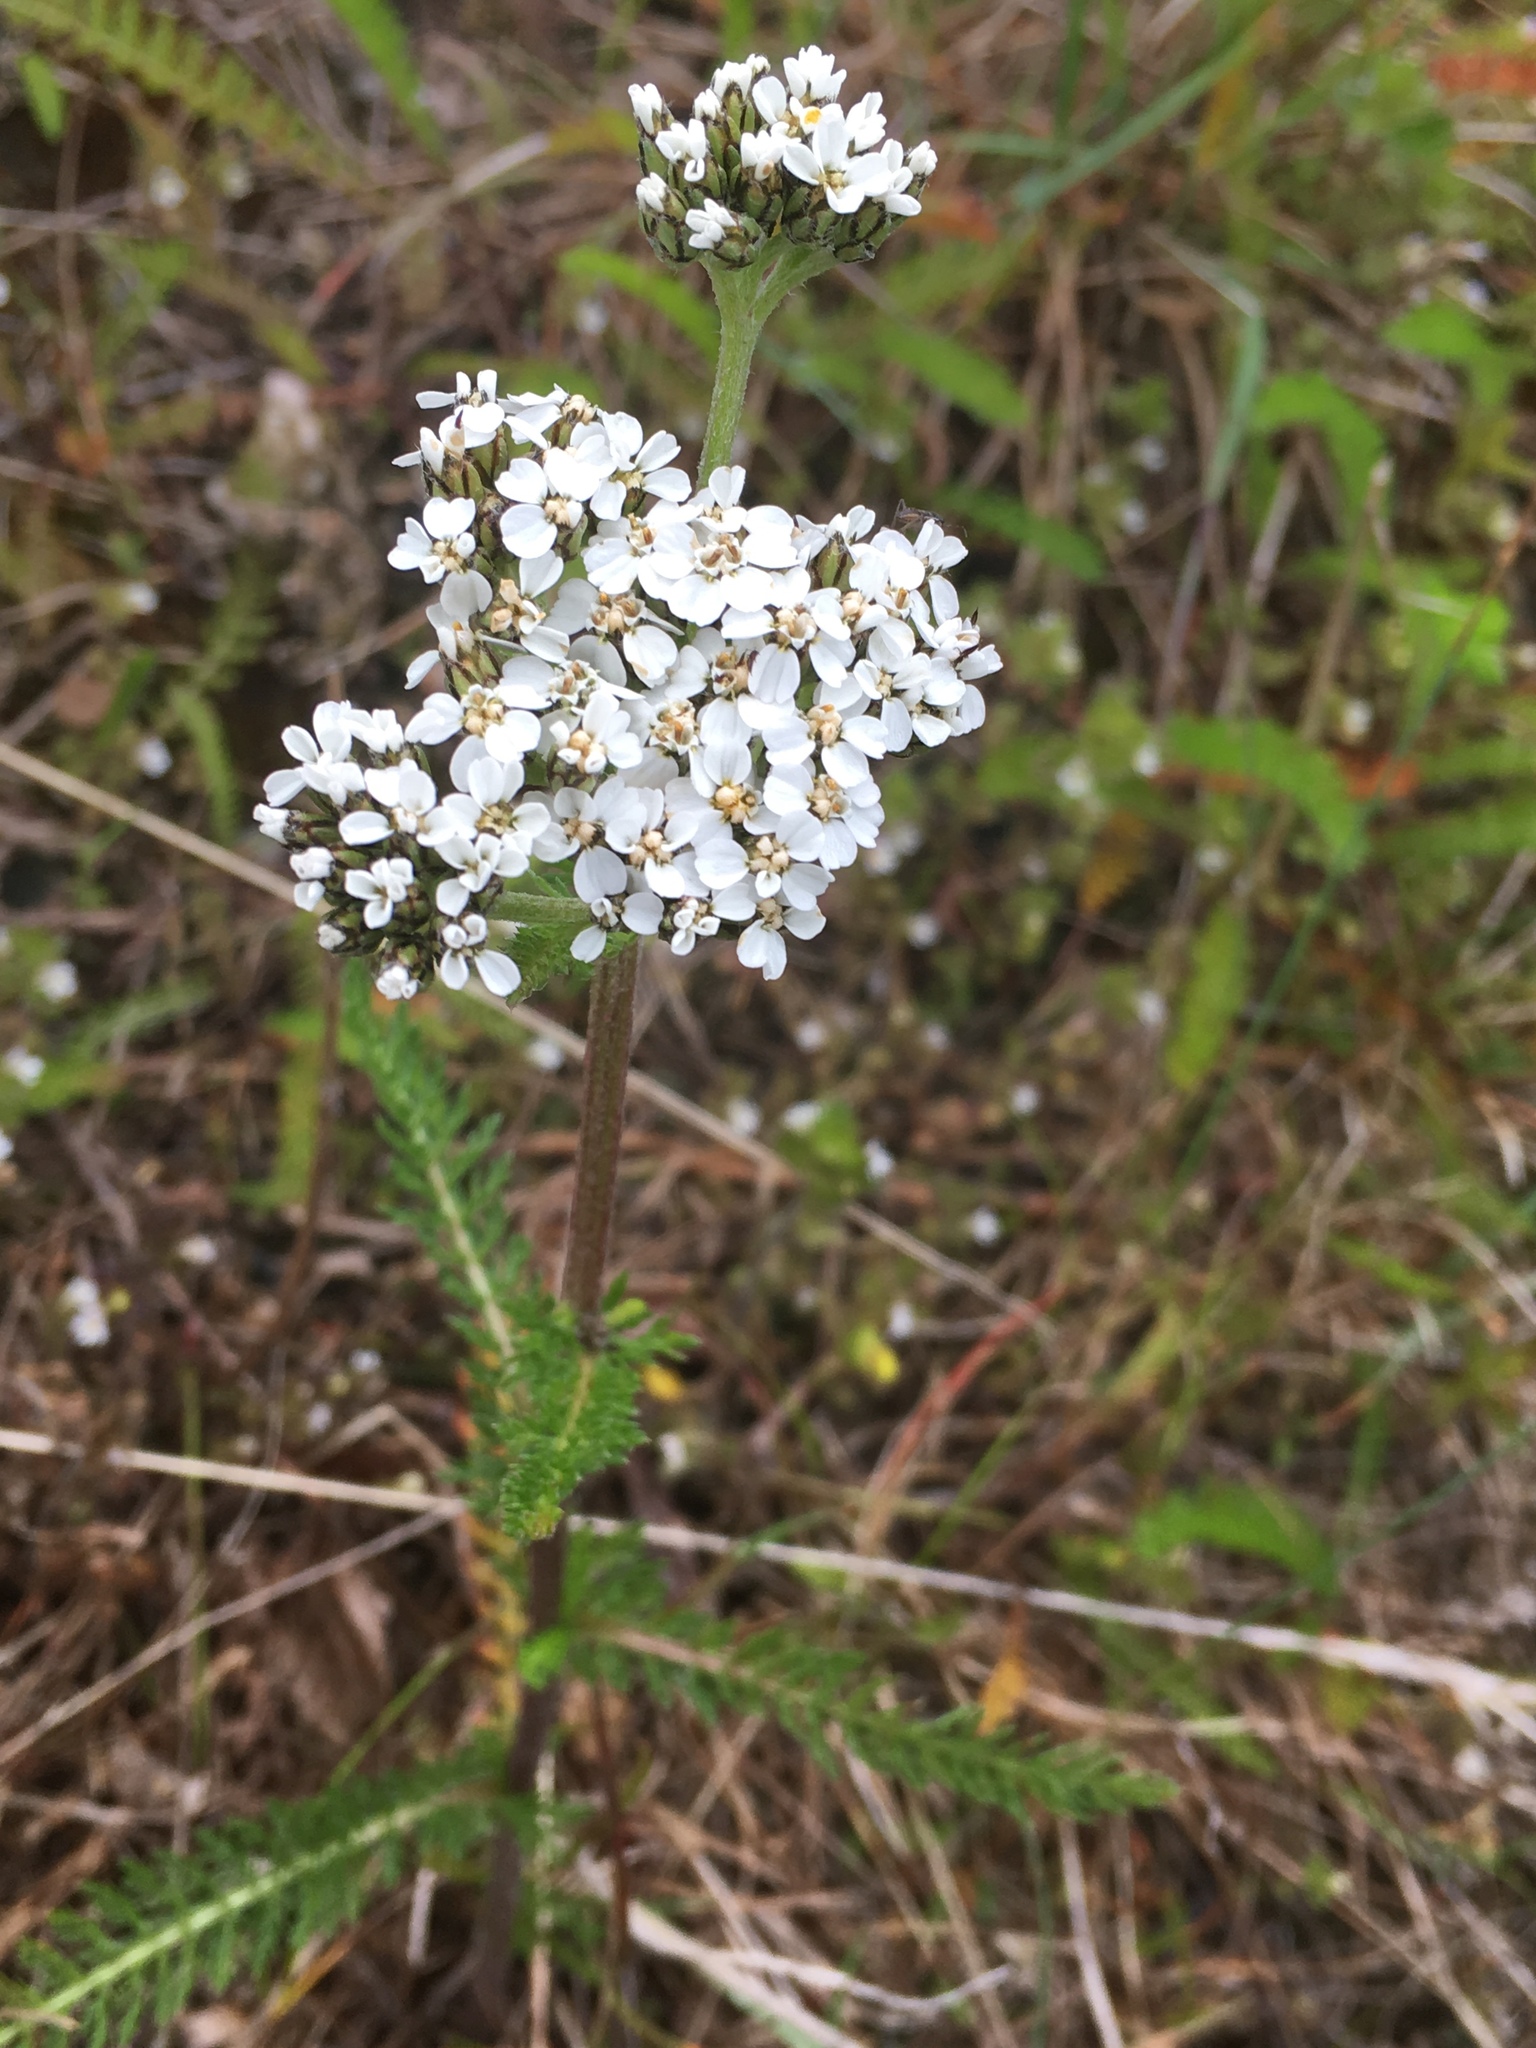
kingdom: Plantae
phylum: Tracheophyta
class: Magnoliopsida
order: Asterales
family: Asteraceae
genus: Achillea
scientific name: Achillea millefolium
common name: Yarrow
